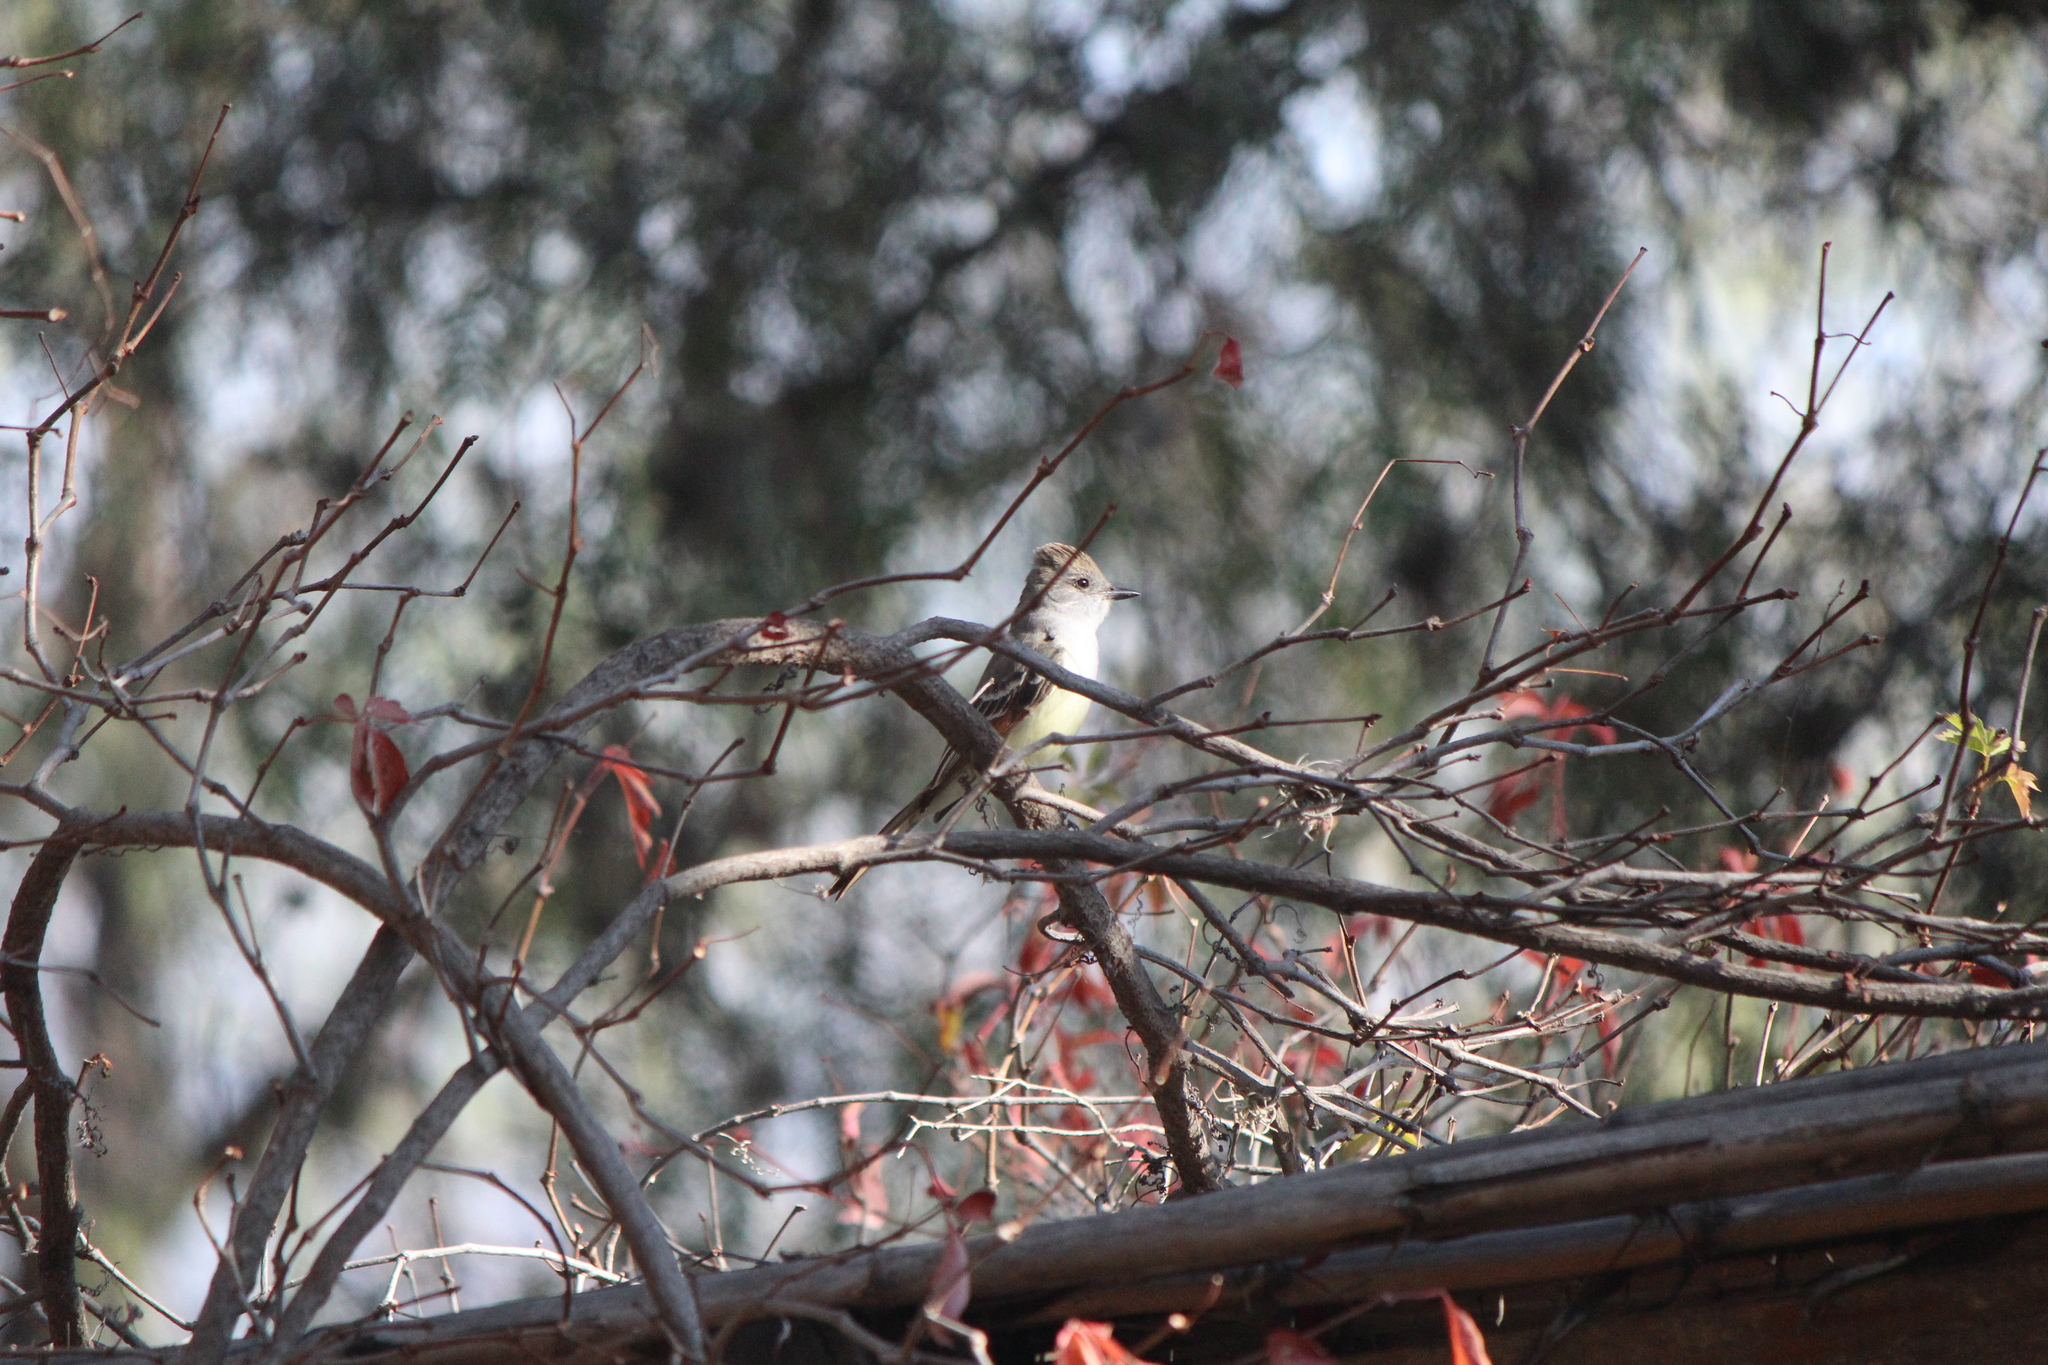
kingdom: Animalia
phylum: Chordata
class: Aves
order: Passeriformes
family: Tyrannidae
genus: Myiarchus
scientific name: Myiarchus cinerascens
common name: Ash-throated flycatcher
